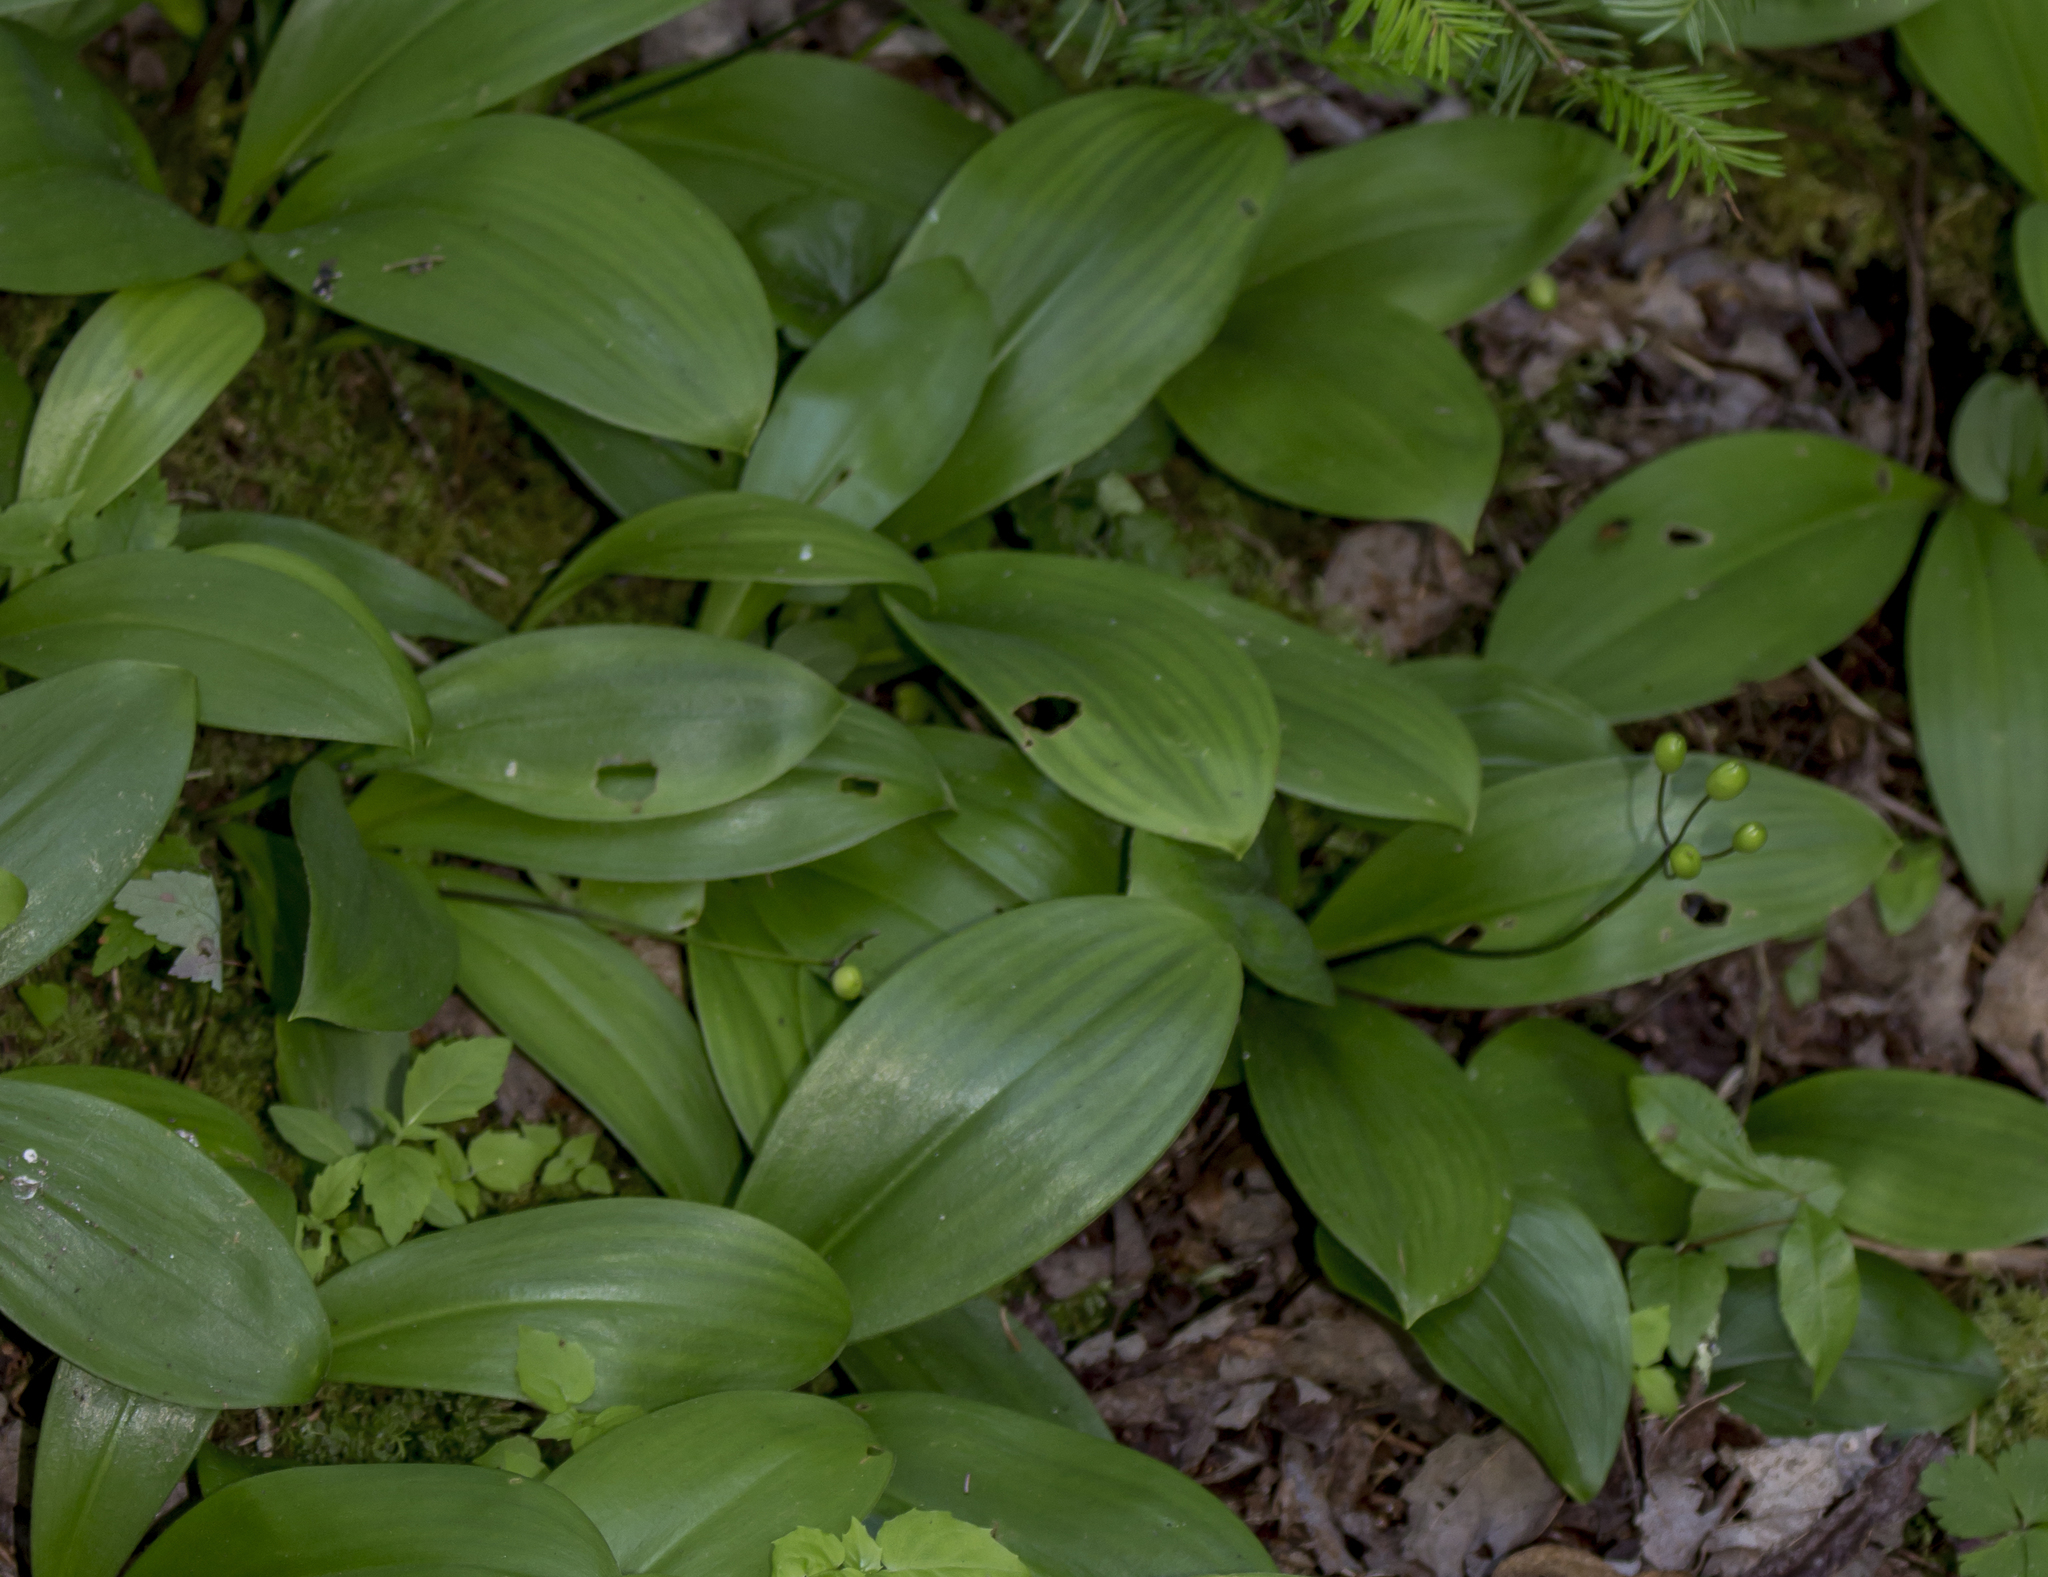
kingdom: Plantae
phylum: Tracheophyta
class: Liliopsida
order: Liliales
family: Liliaceae
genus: Clintonia
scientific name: Clintonia borealis
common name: Yellow clintonia
